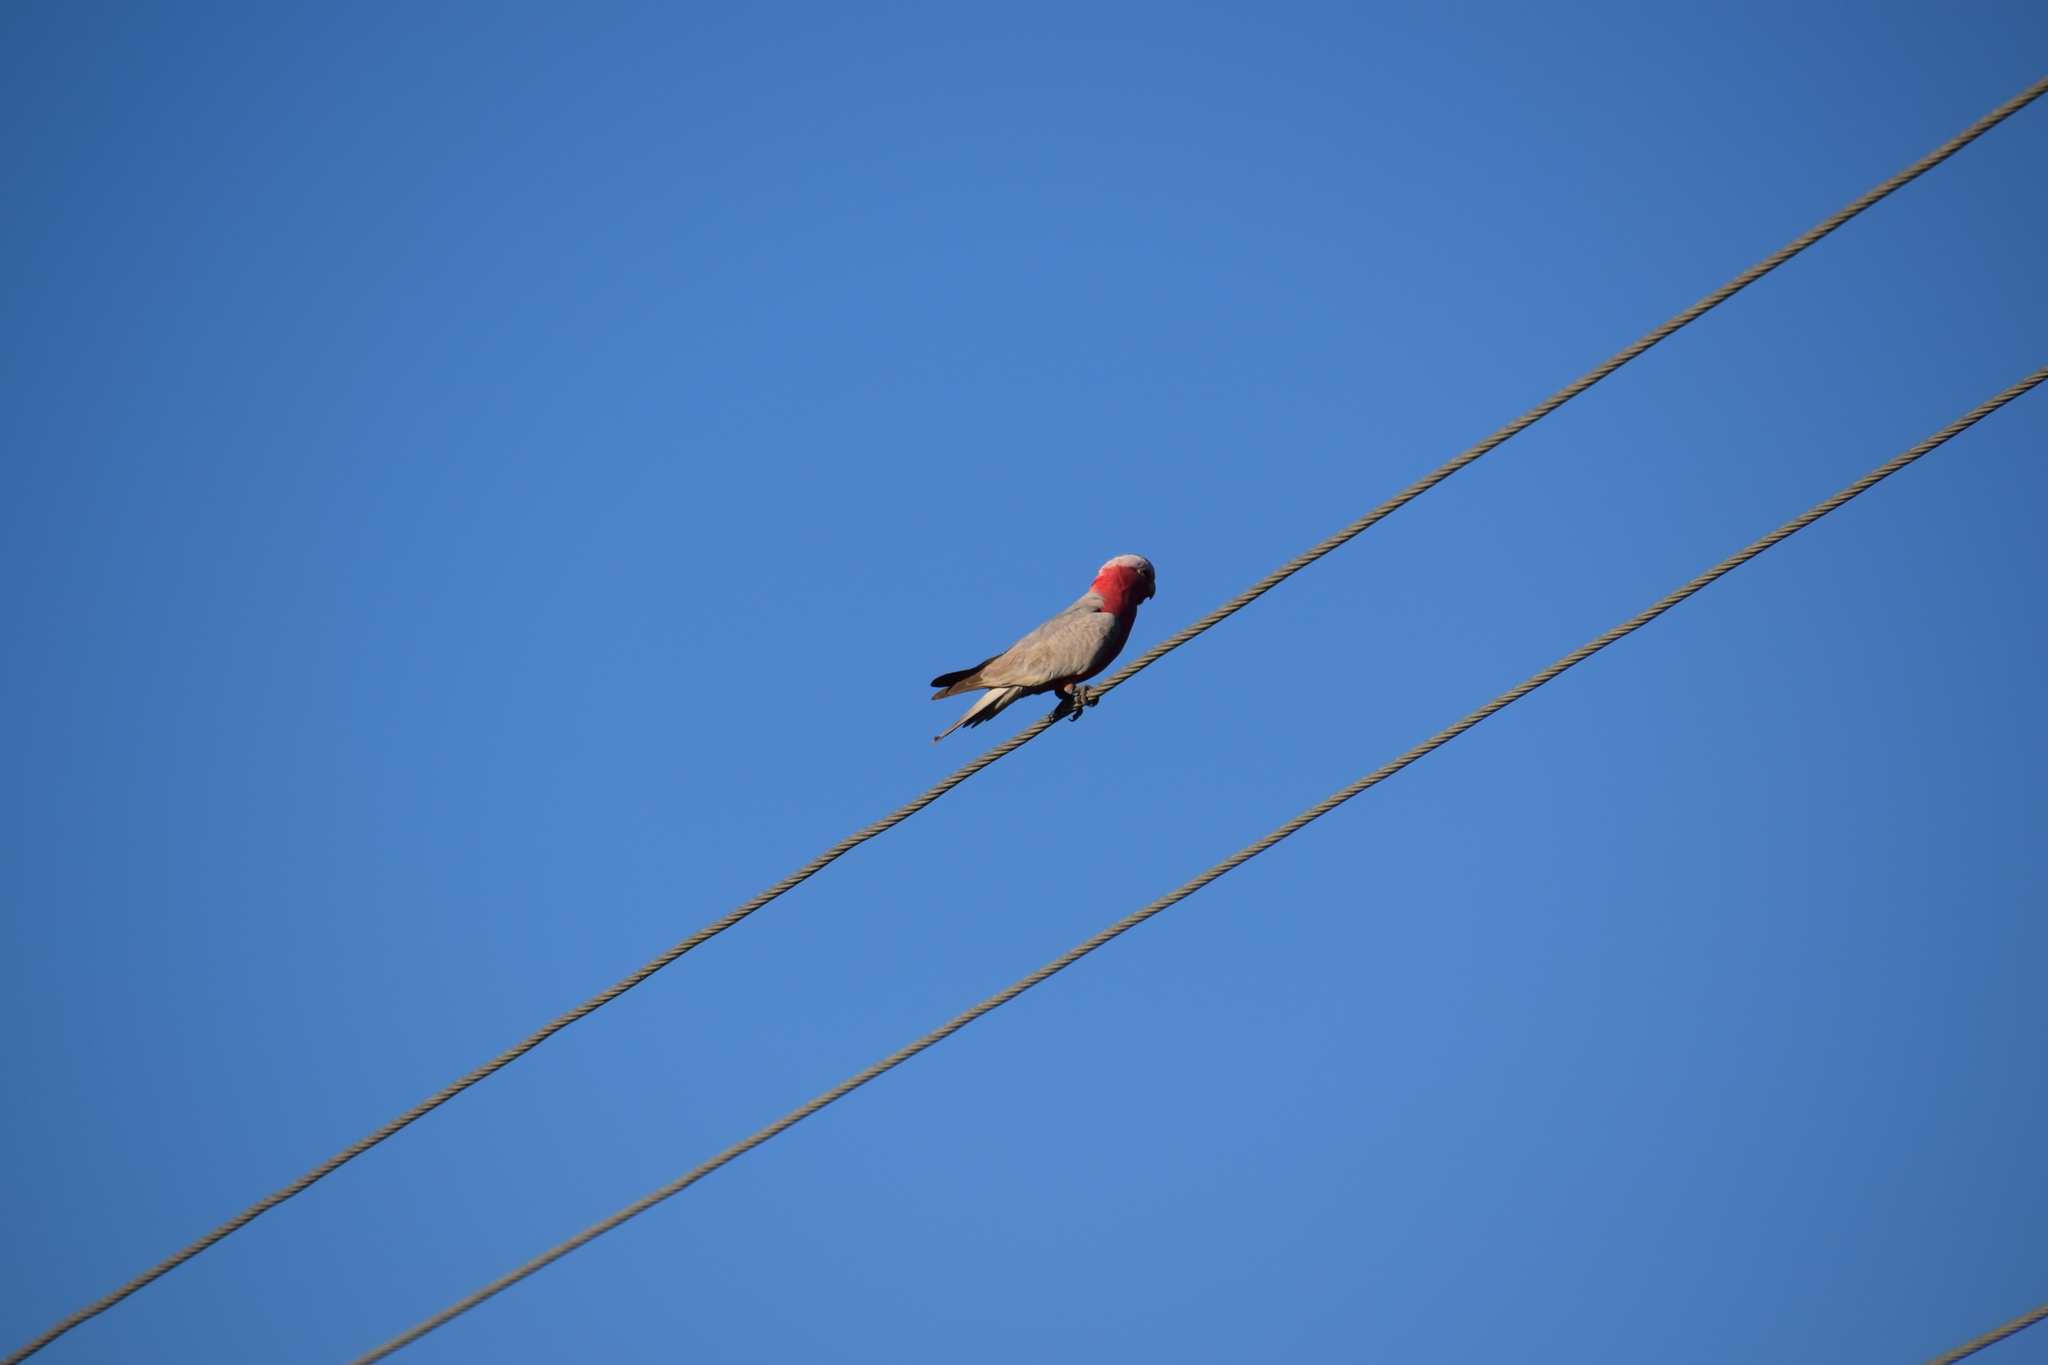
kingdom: Animalia
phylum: Chordata
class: Aves
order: Psittaciformes
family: Psittacidae
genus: Eolophus
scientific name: Eolophus roseicapilla
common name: Galah
